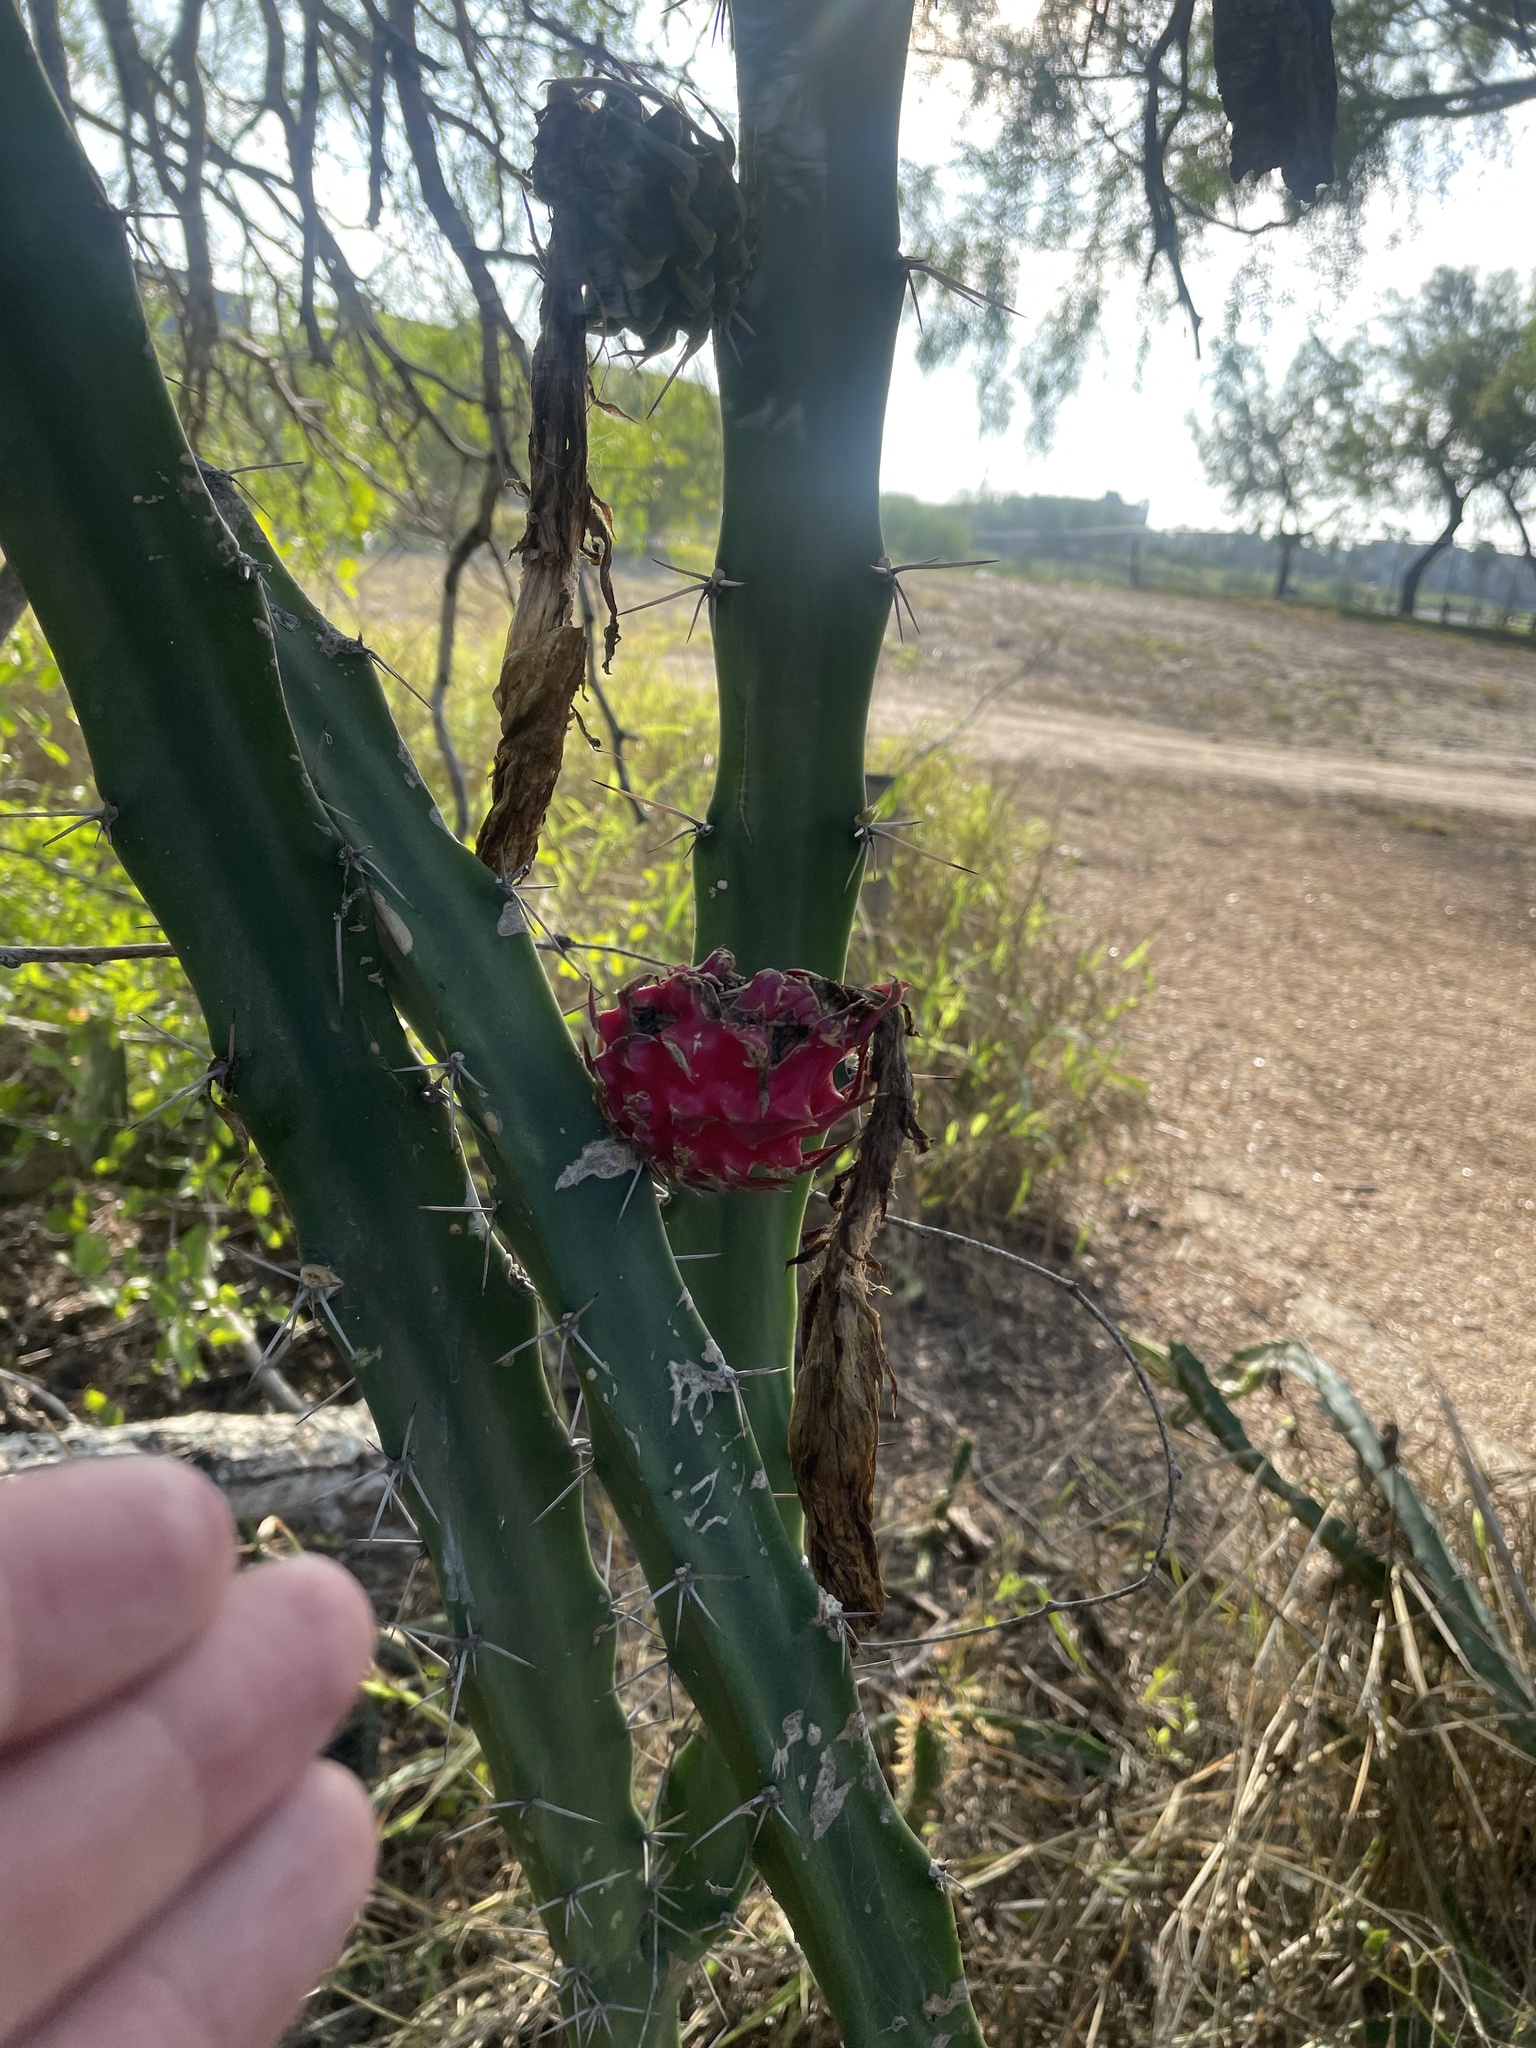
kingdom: Plantae
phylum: Tracheophyta
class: Magnoliopsida
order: Caryophyllales
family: Cactaceae
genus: Acanthocereus
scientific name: Acanthocereus tetragonus
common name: Triangle cactus
